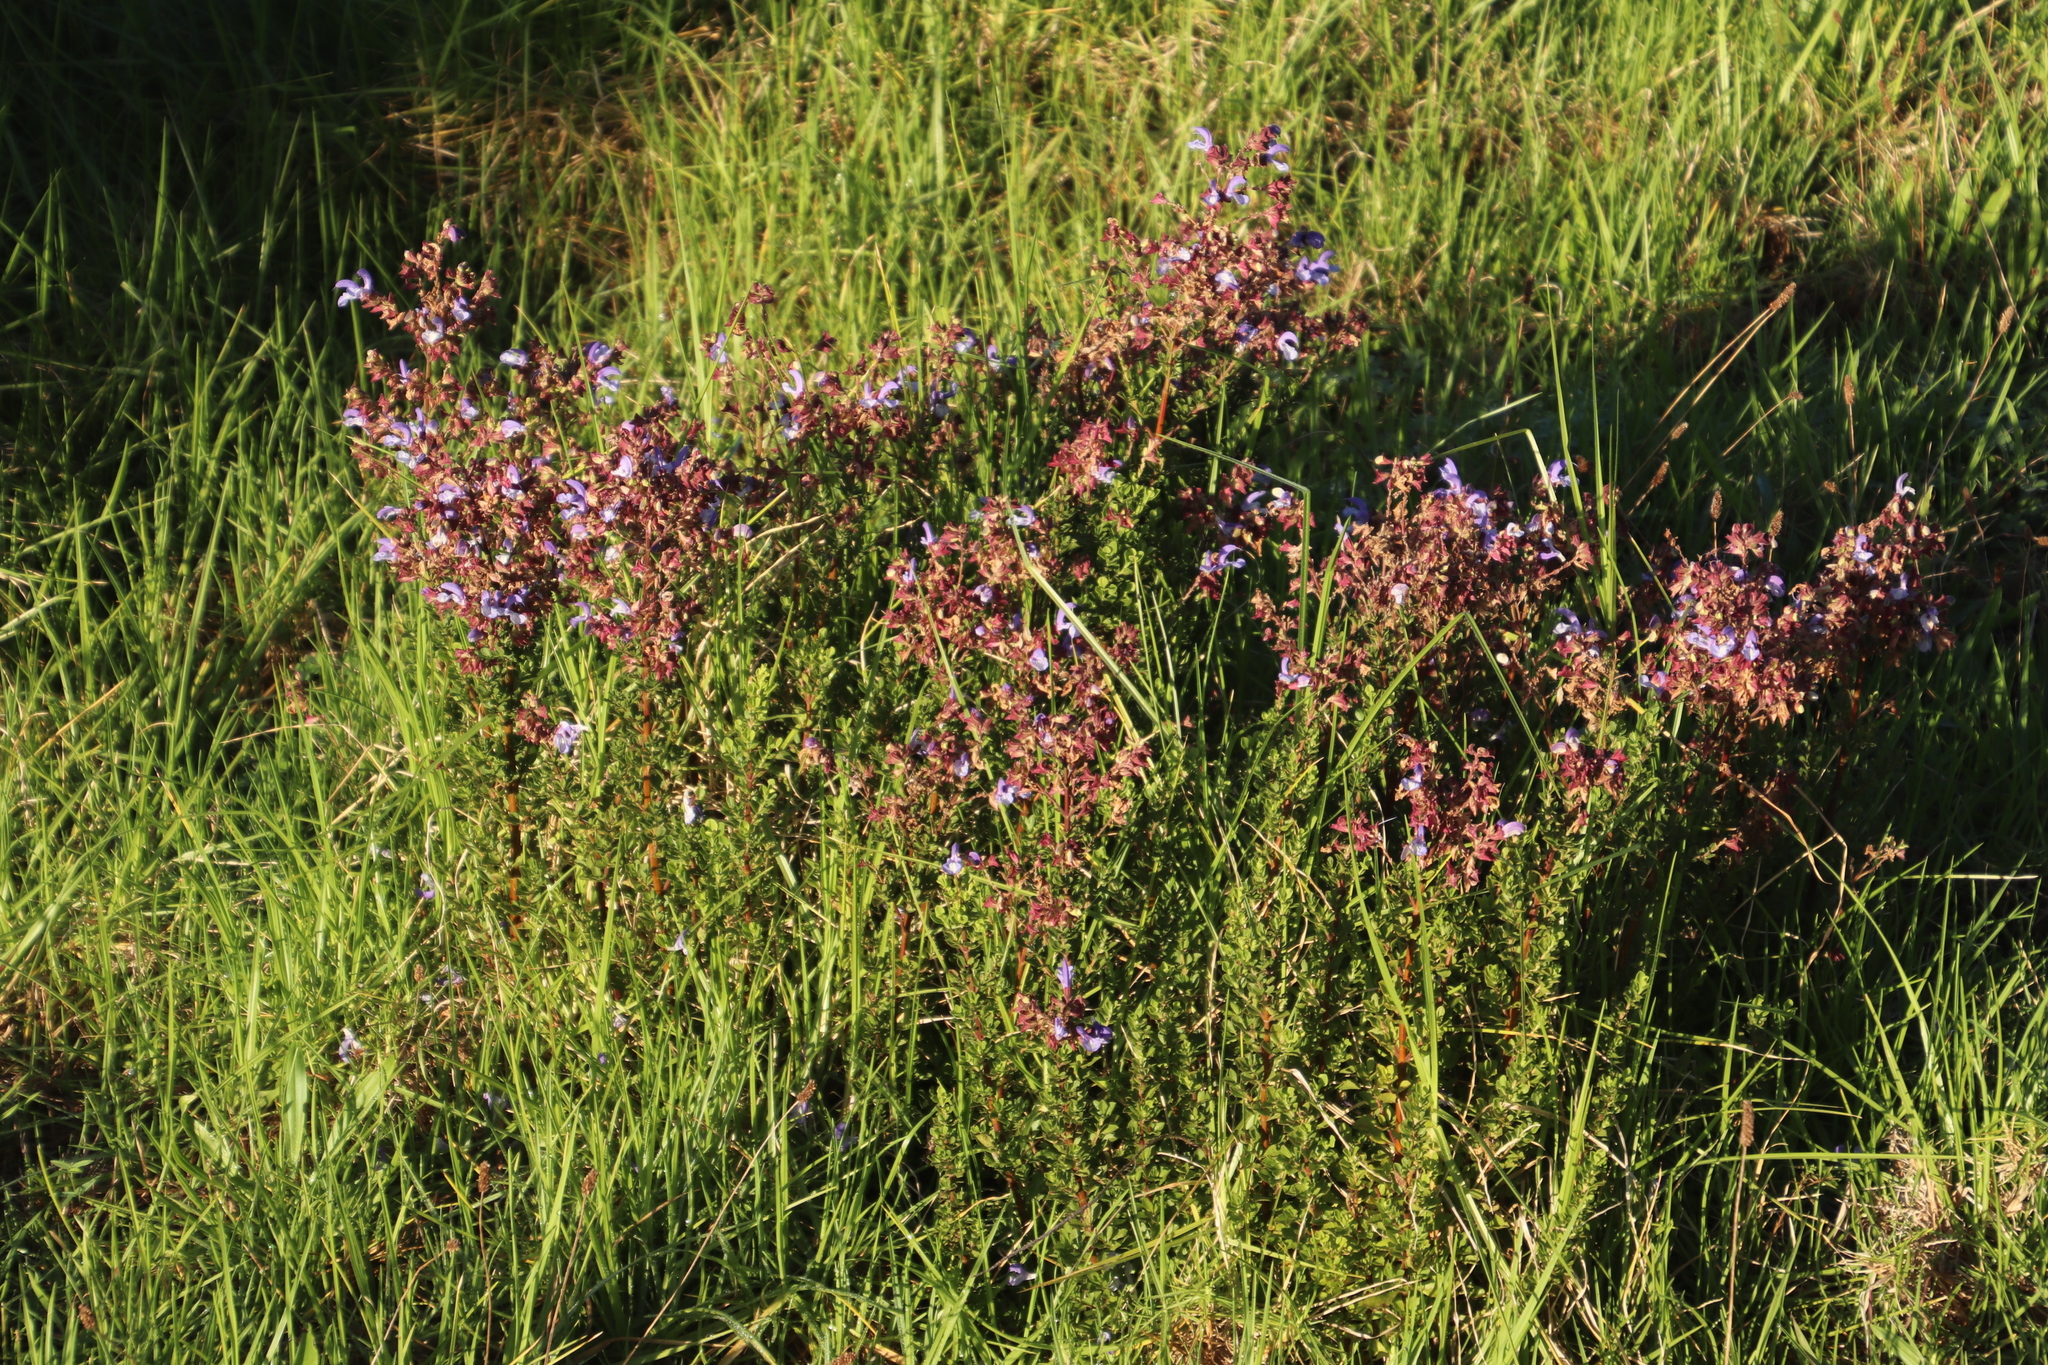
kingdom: Plantae
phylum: Tracheophyta
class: Magnoliopsida
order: Lamiales
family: Lamiaceae
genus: Salvia
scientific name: Salvia chamelaeagnea
